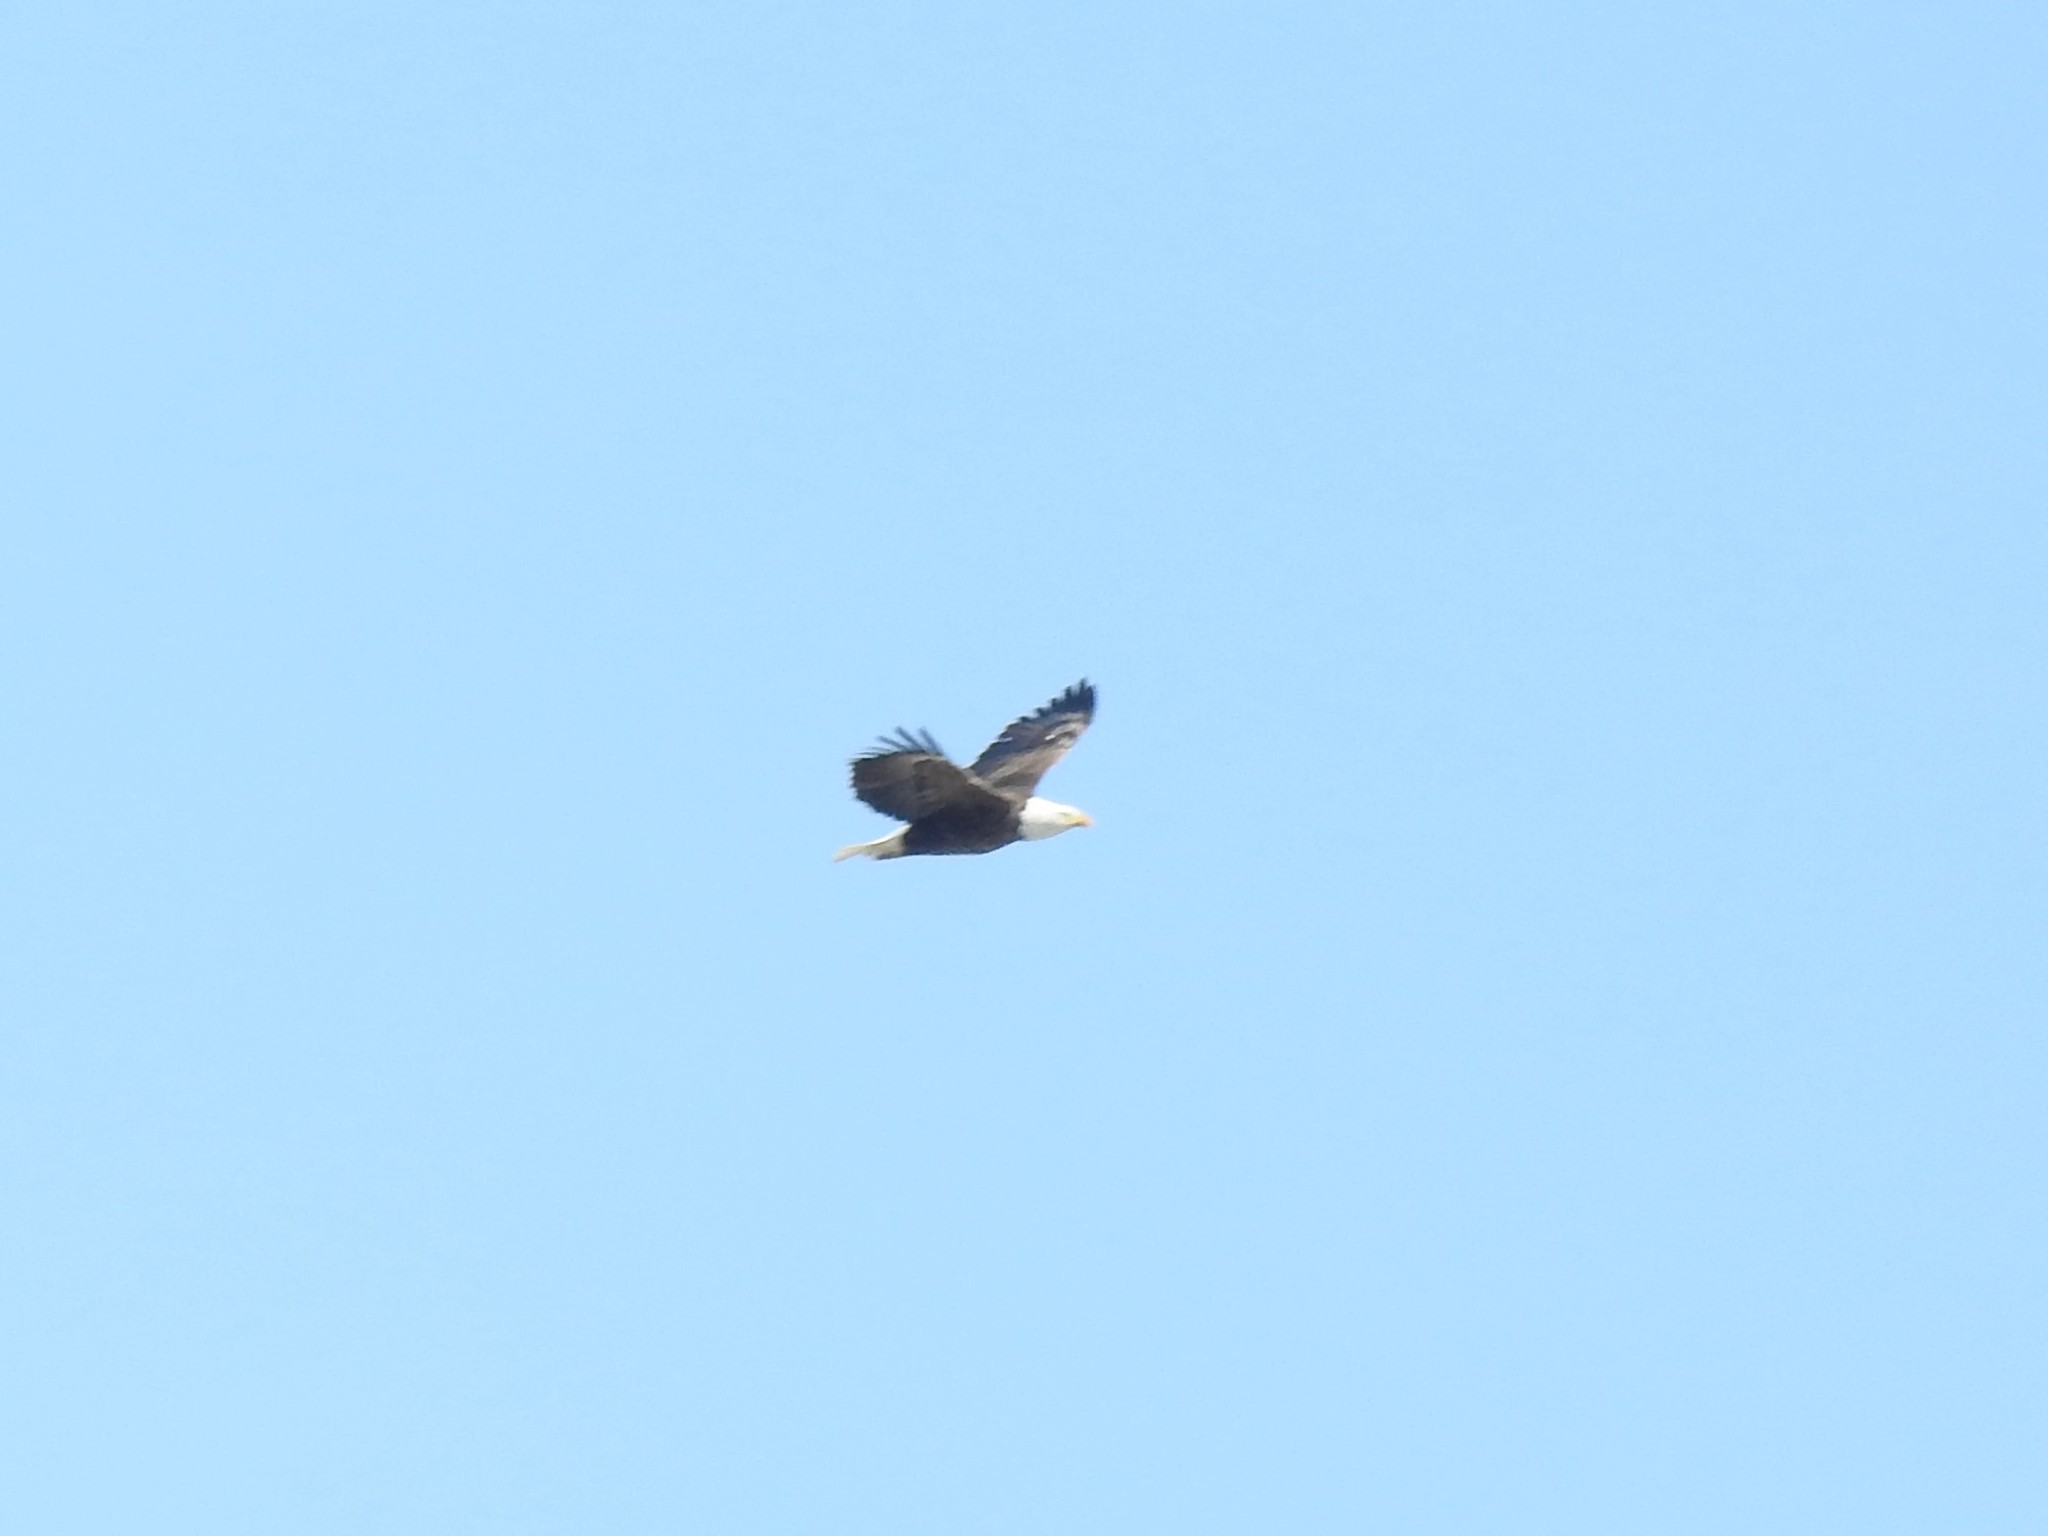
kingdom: Animalia
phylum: Chordata
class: Aves
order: Accipitriformes
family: Accipitridae
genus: Haliaeetus
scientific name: Haliaeetus leucocephalus
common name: Bald eagle
